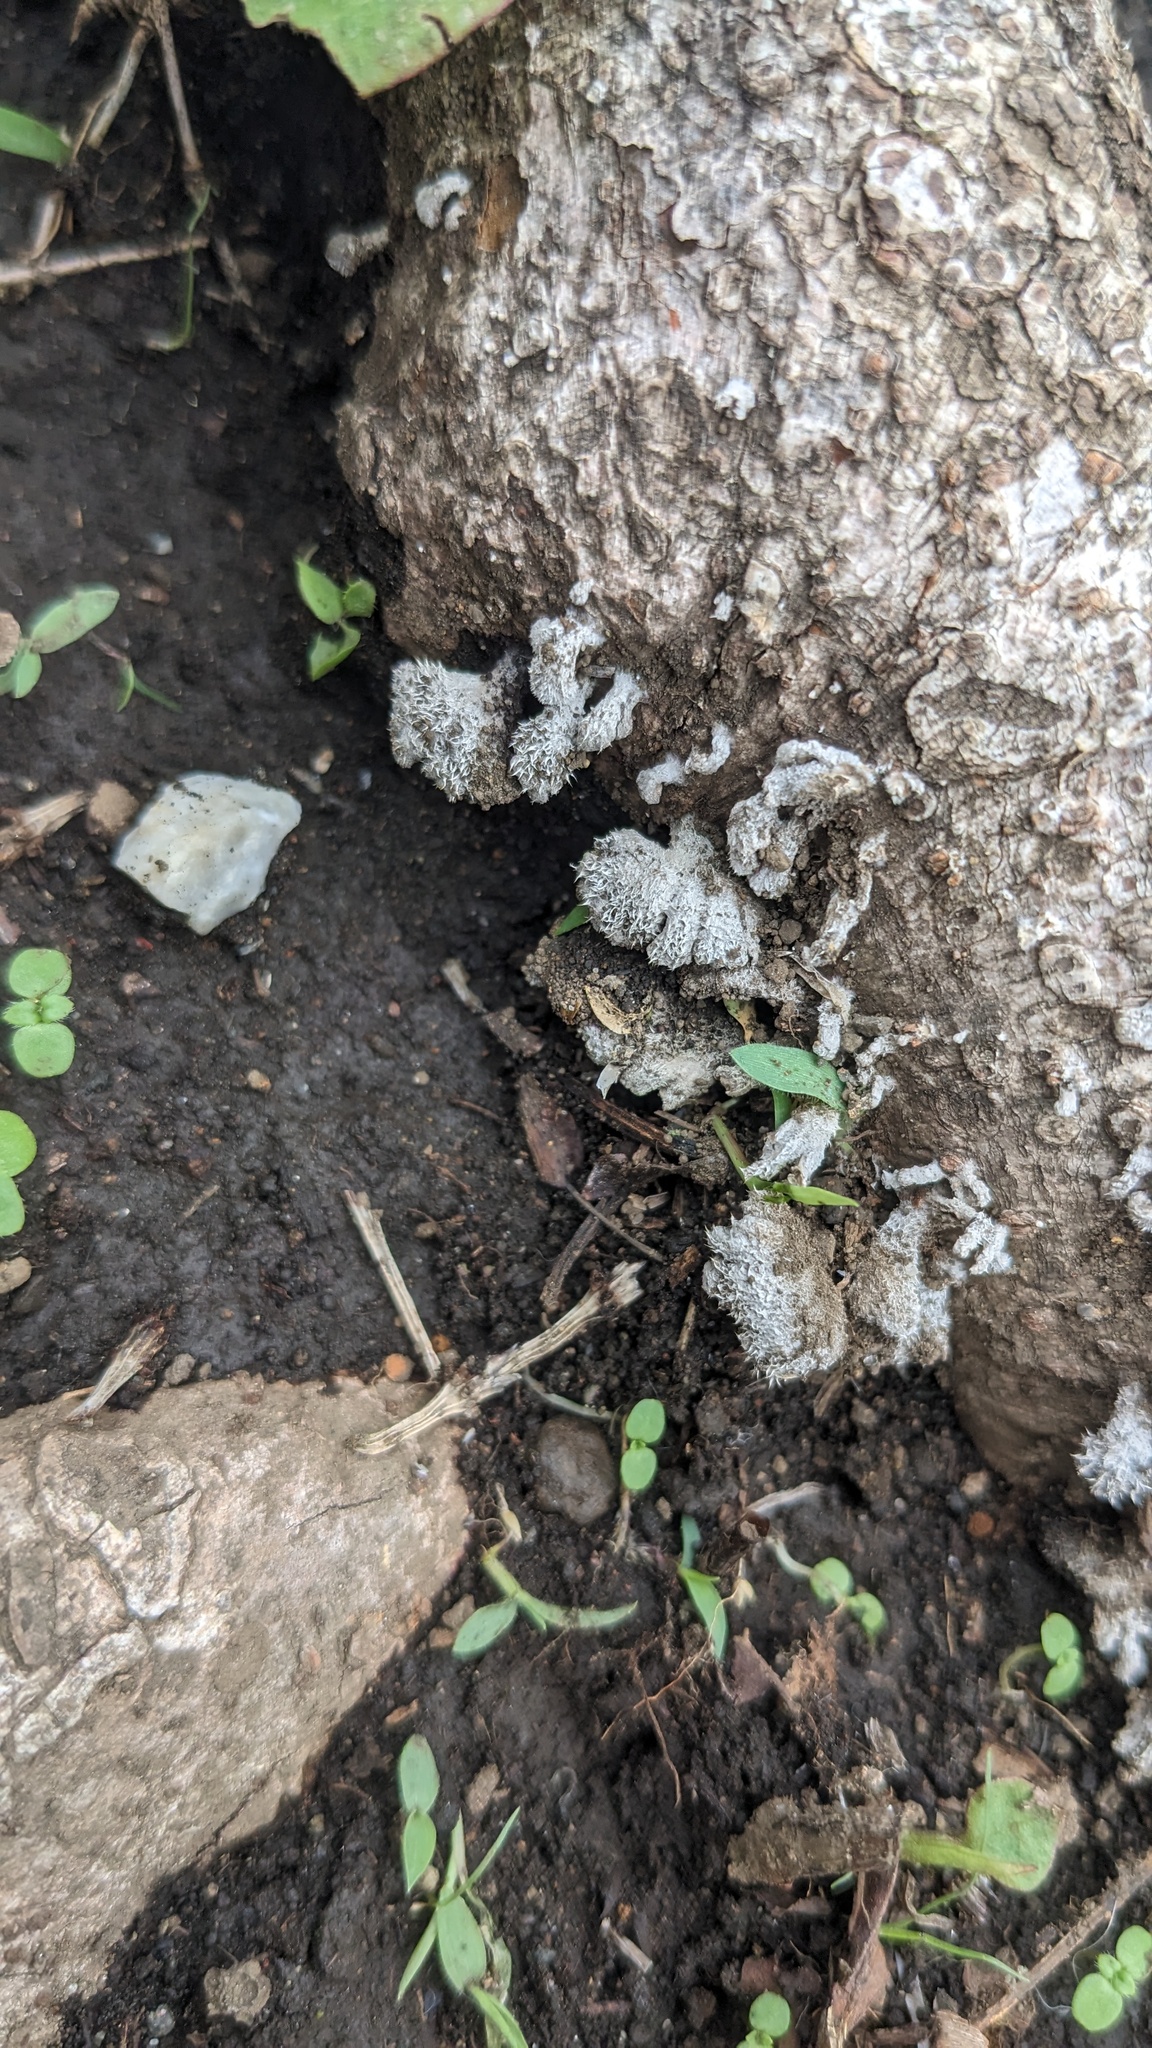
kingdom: Fungi
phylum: Basidiomycota
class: Agaricomycetes
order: Agaricales
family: Schizophyllaceae
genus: Schizophyllum
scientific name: Schizophyllum commune
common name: Common porecrust
